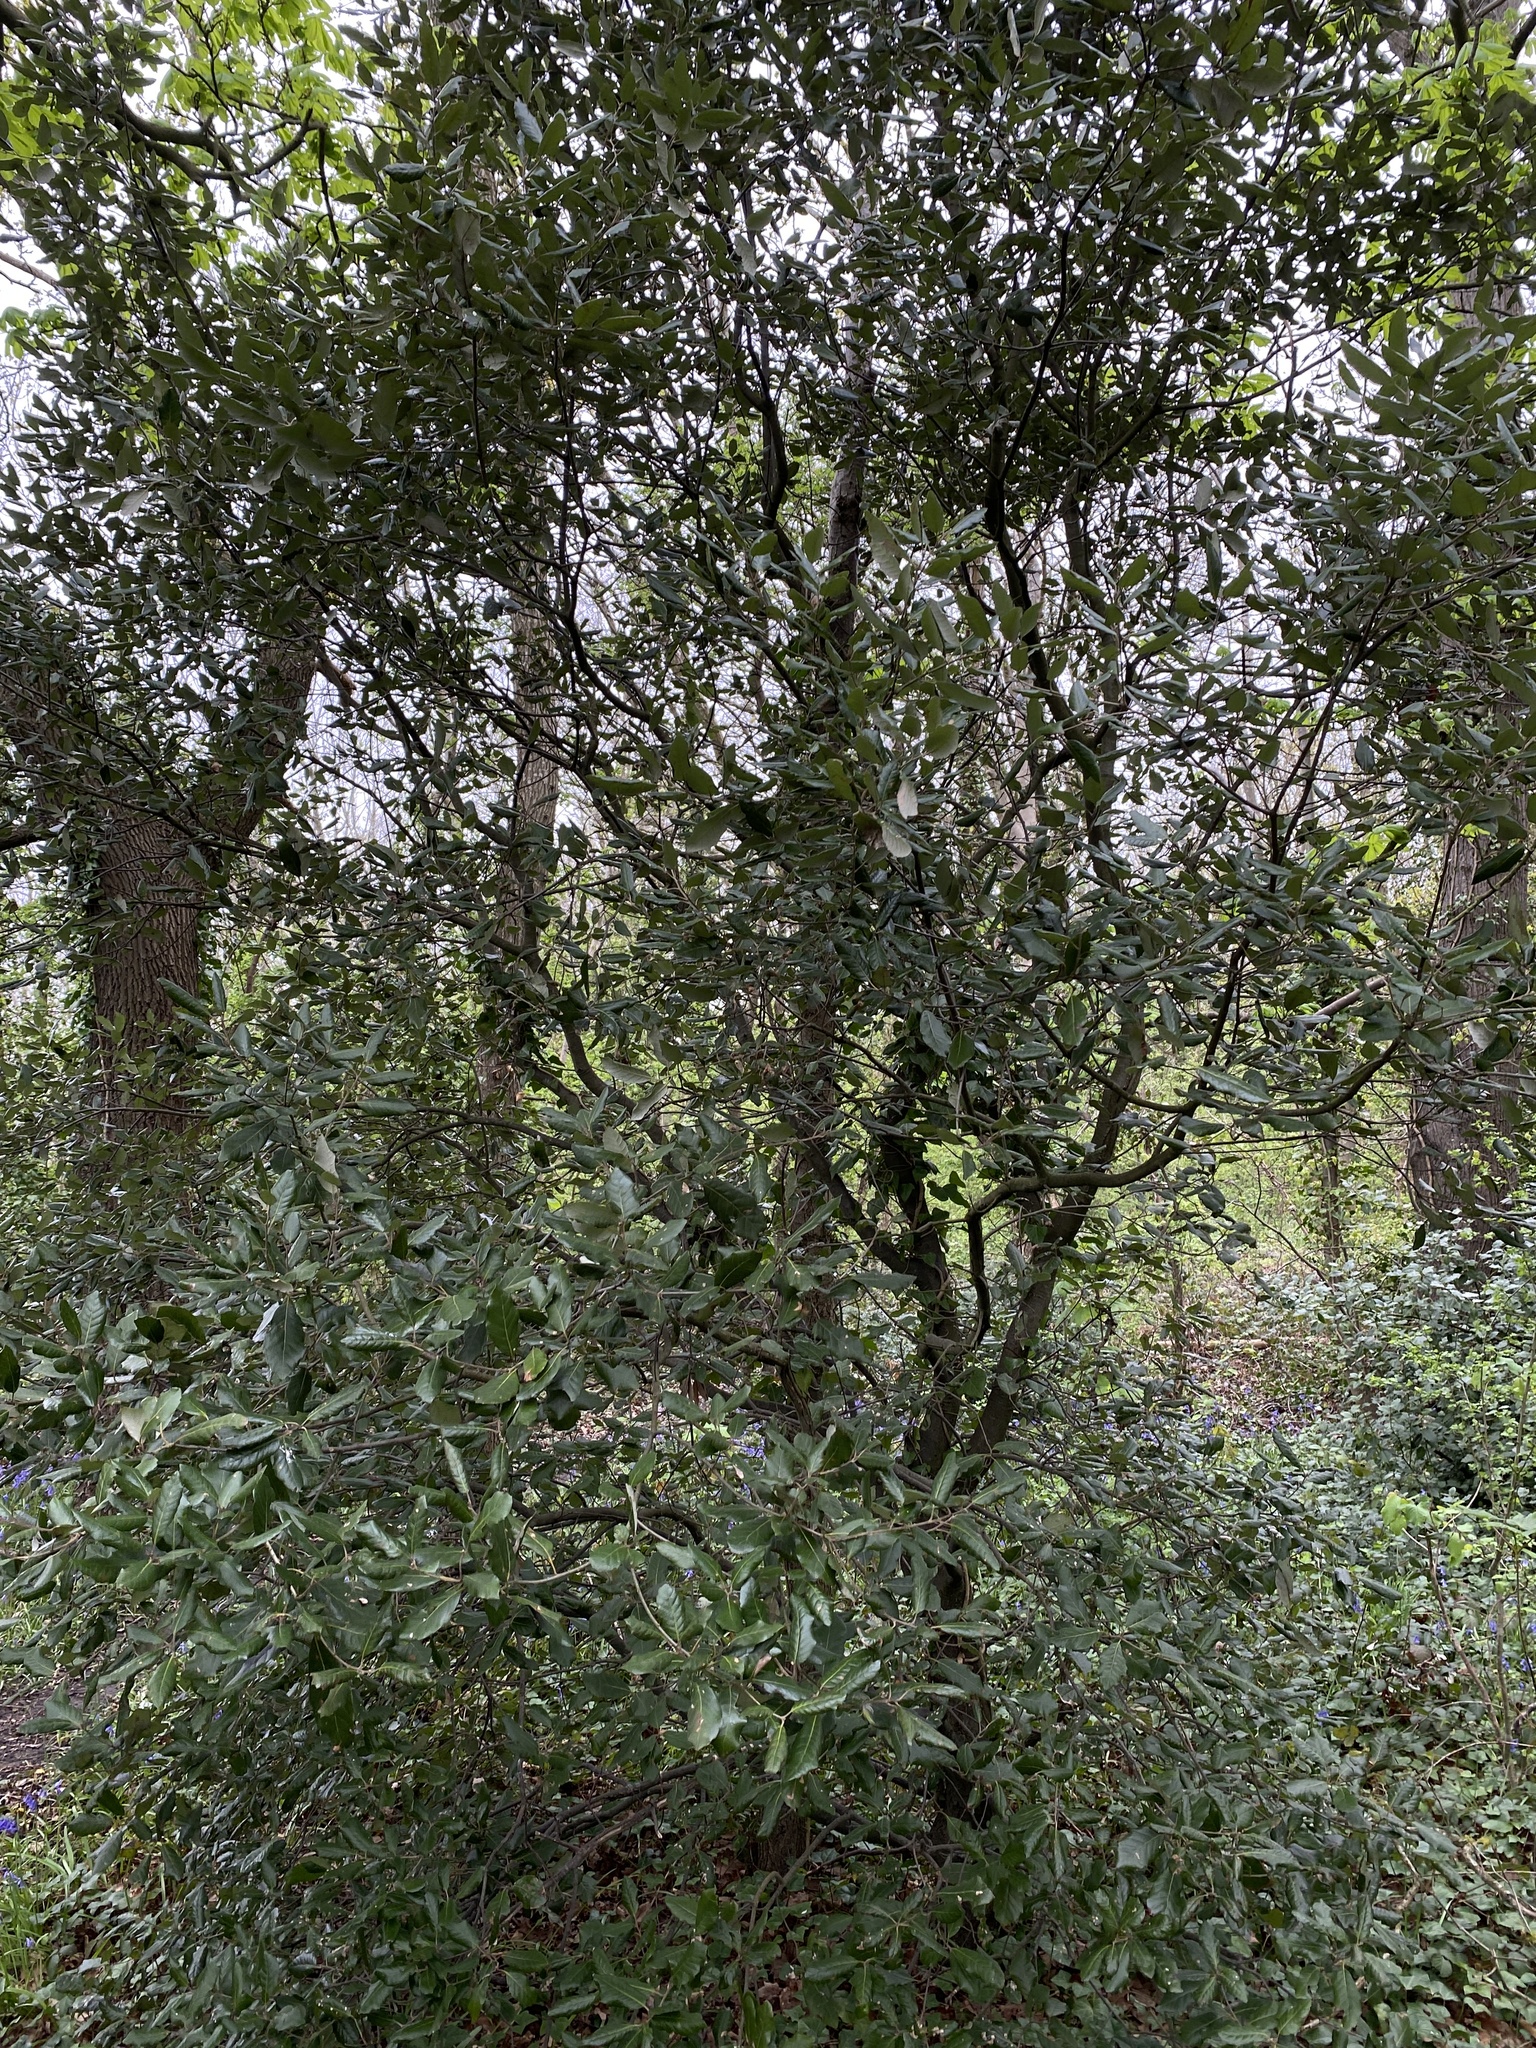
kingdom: Plantae
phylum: Tracheophyta
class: Magnoliopsida
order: Fagales
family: Fagaceae
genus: Quercus
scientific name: Quercus ilex
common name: Evergreen oak
